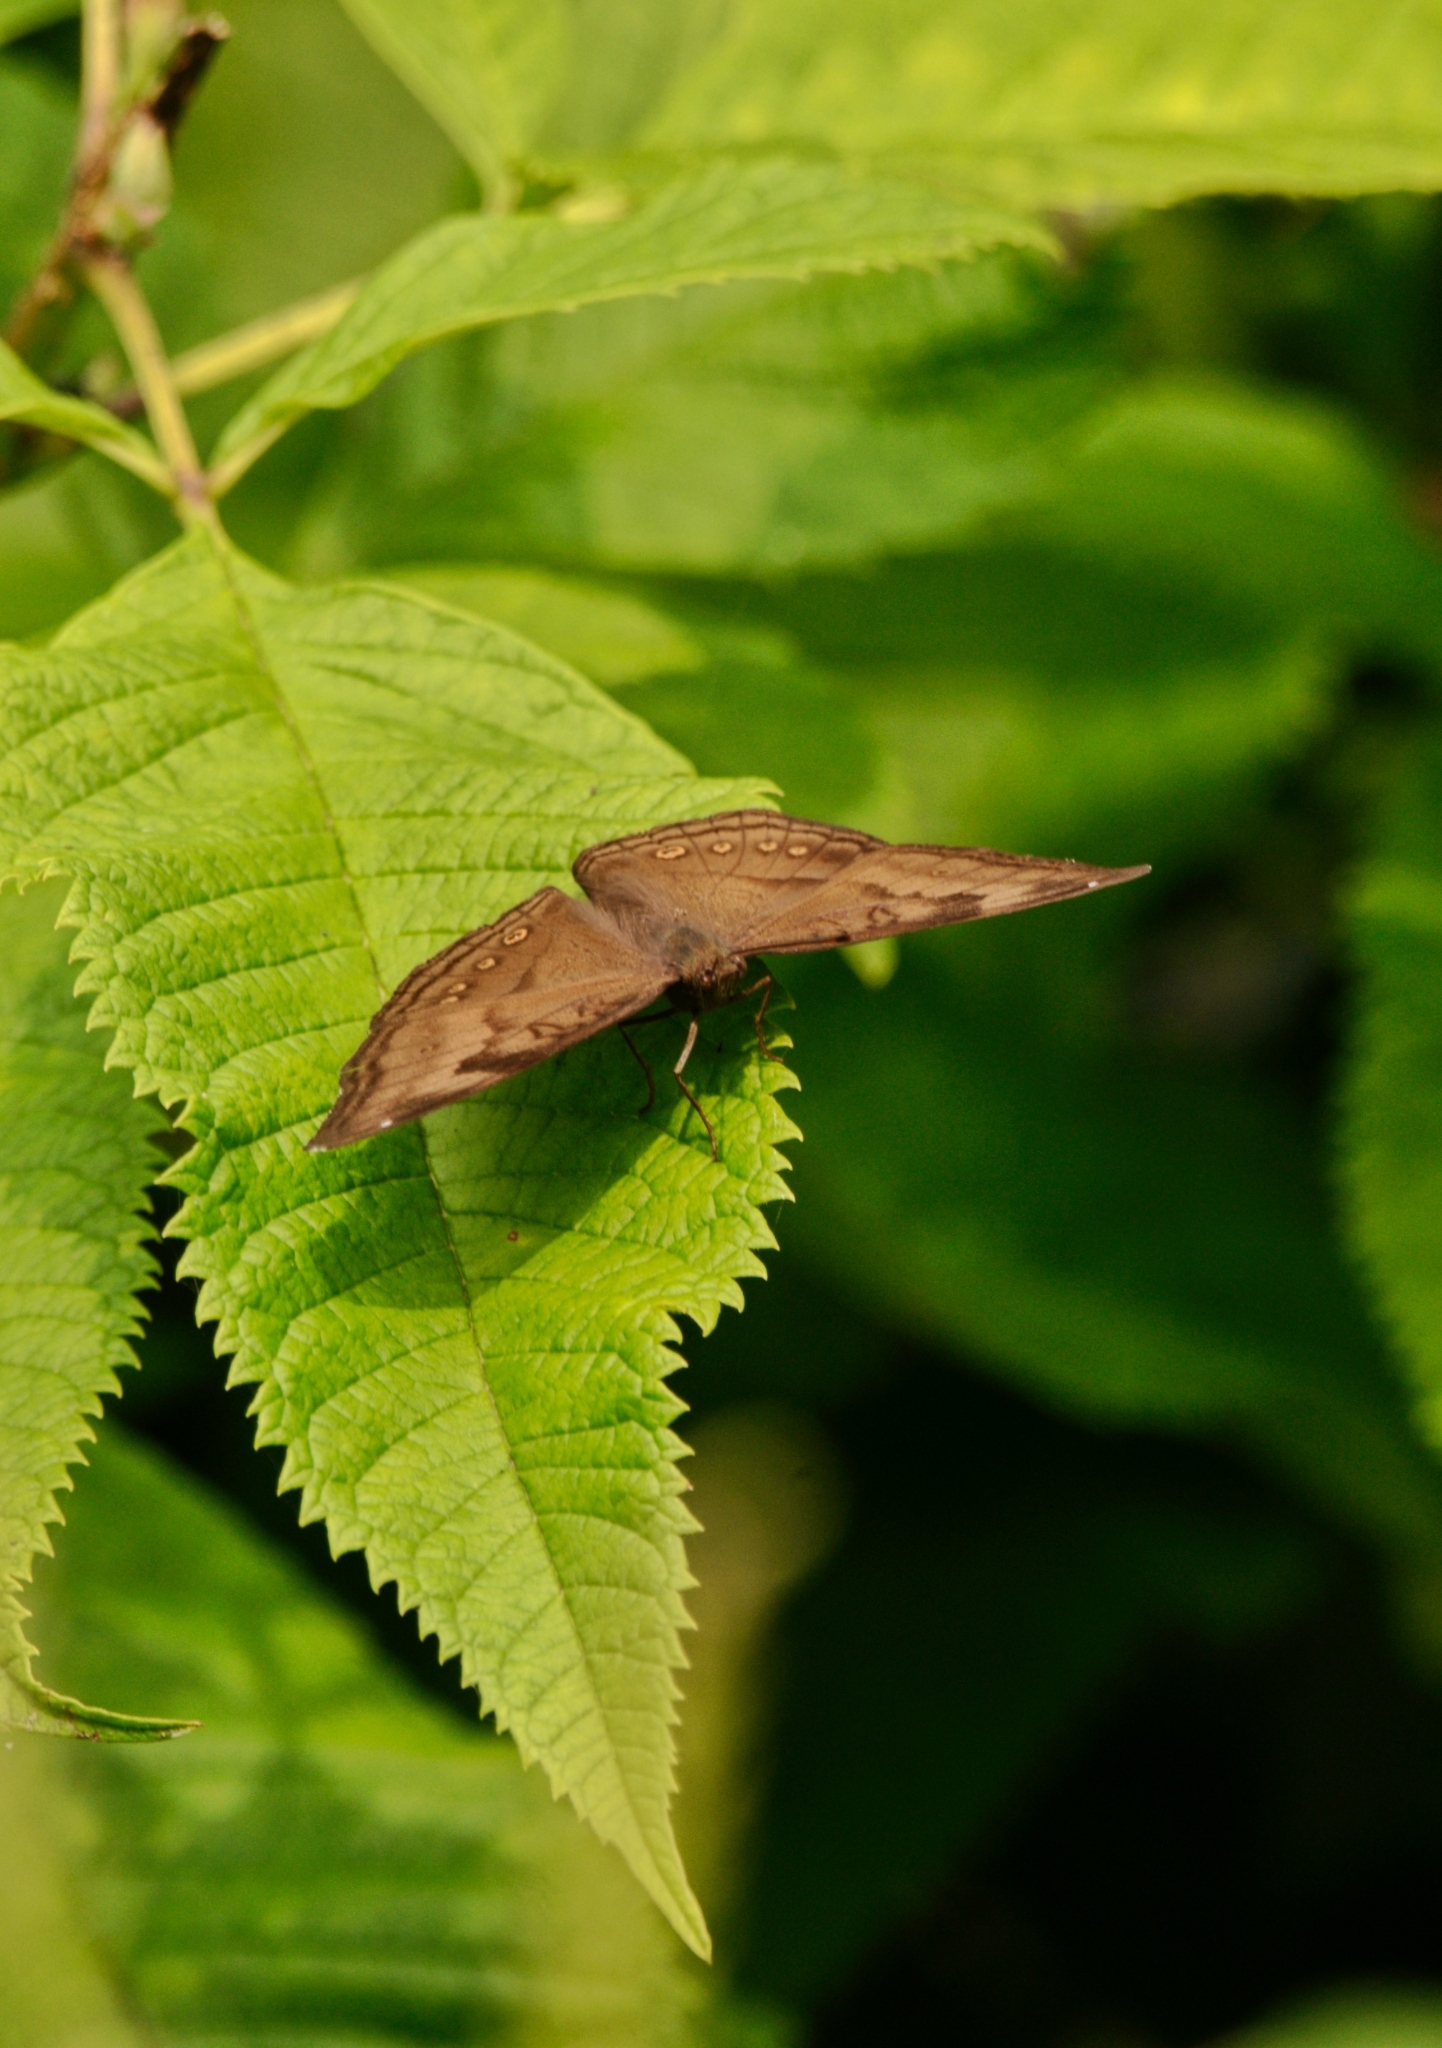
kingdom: Animalia
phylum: Arthropoda
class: Insecta
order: Lepidoptera
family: Nymphalidae
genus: Junonia
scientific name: Junonia iphita
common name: Chocolate pansy
